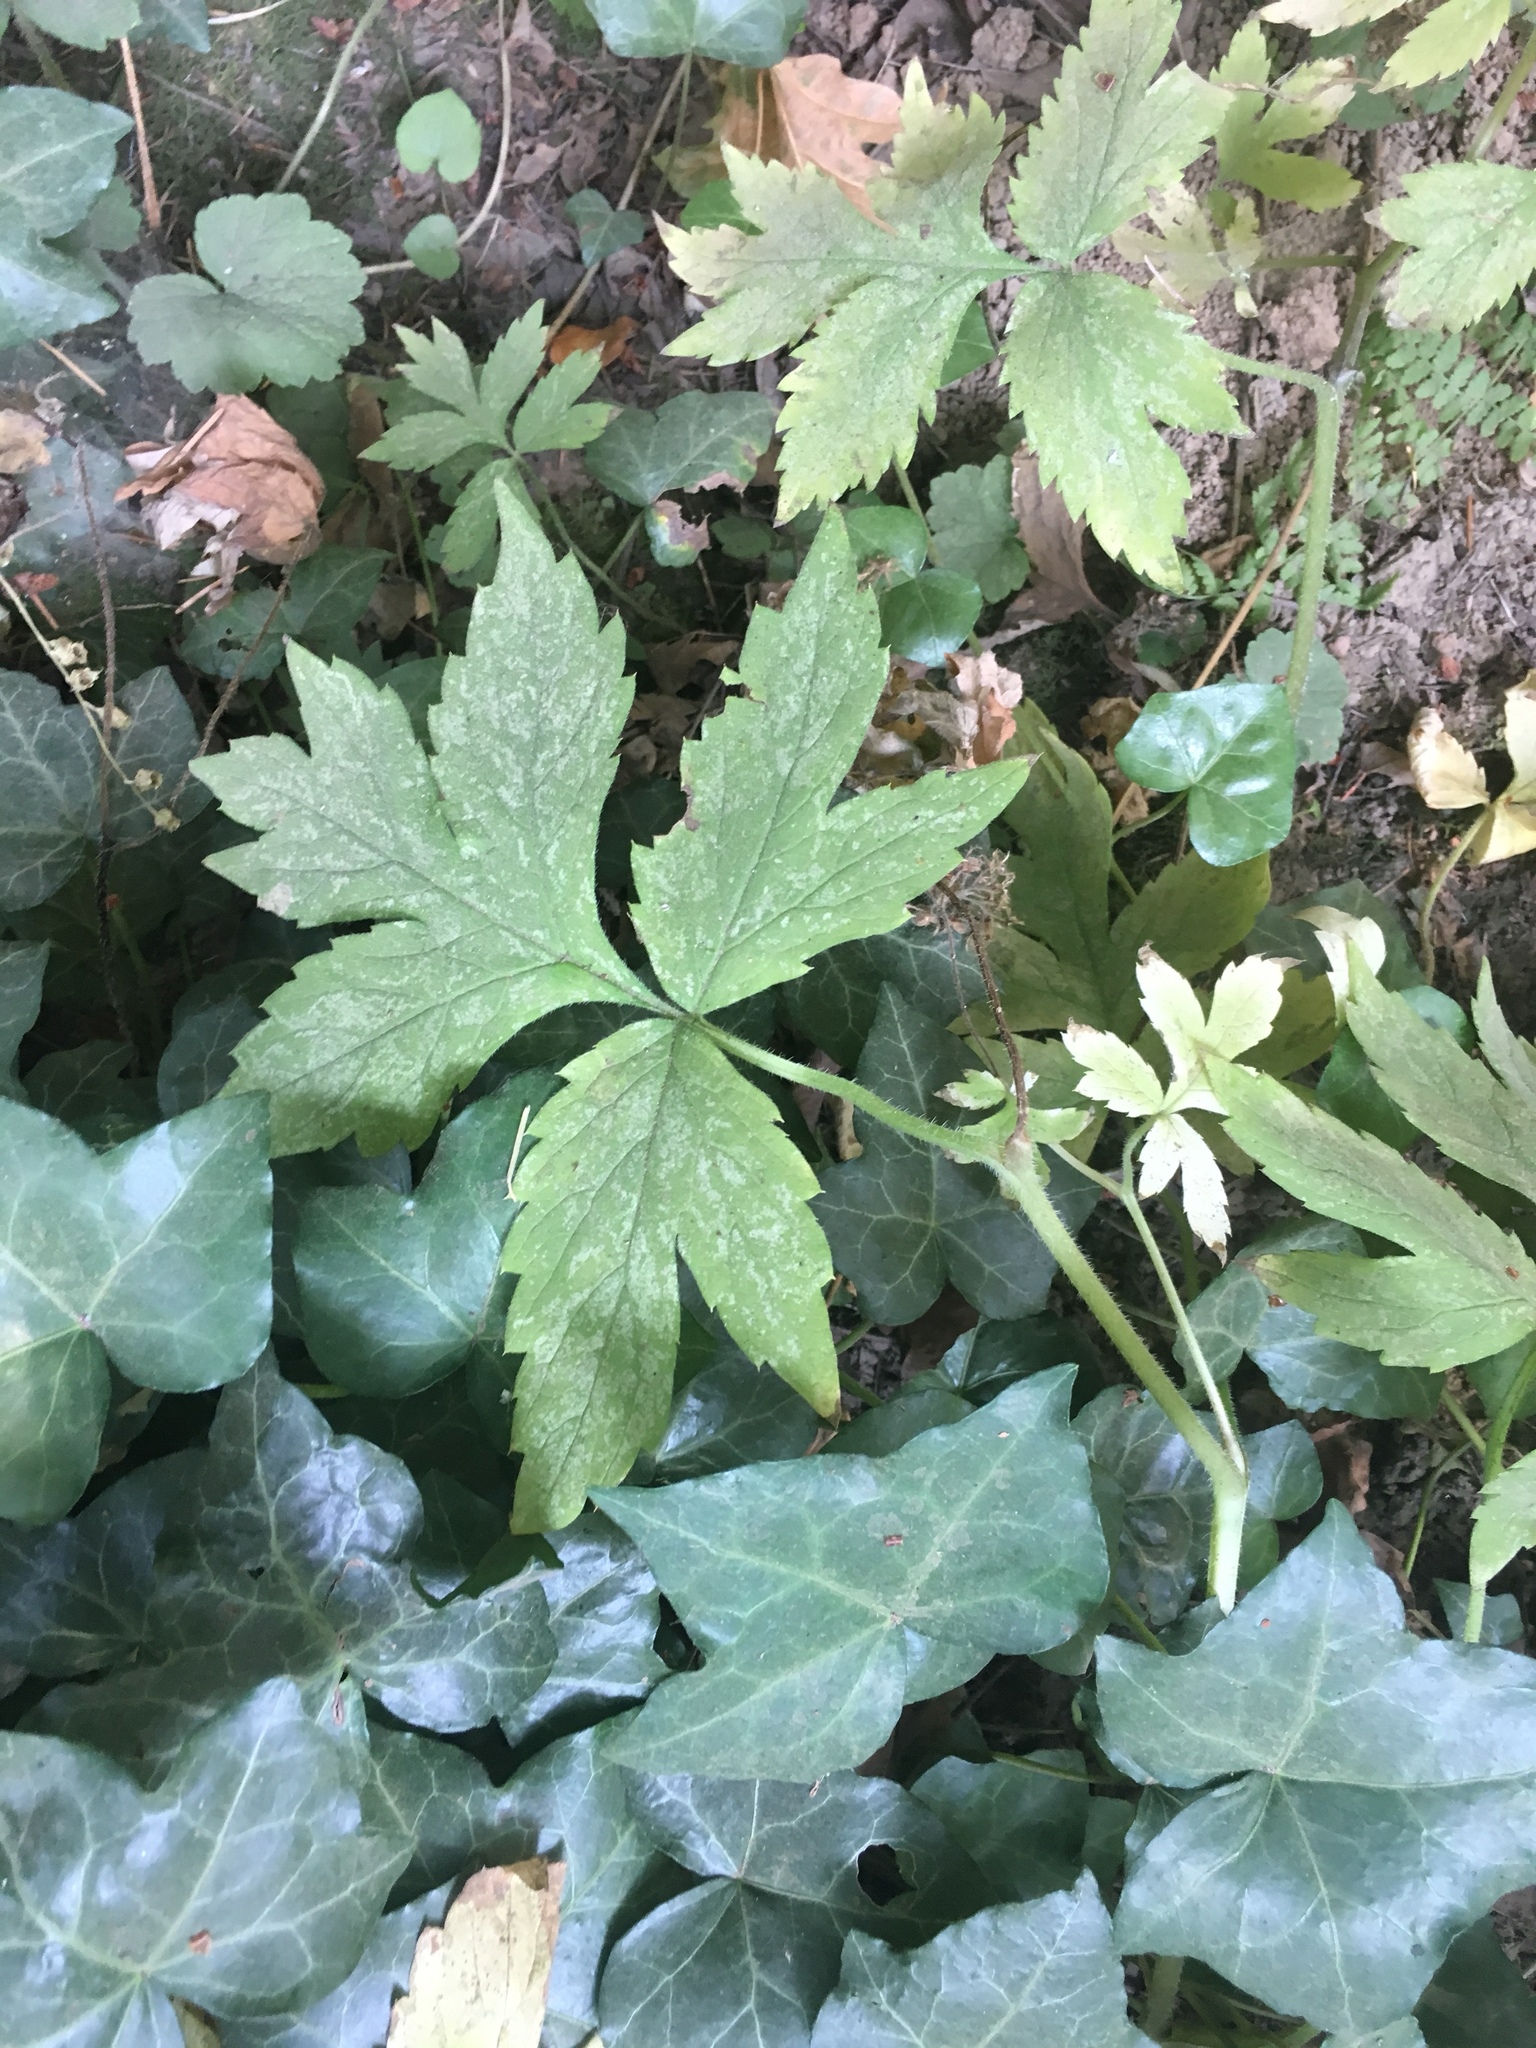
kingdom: Plantae
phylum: Tracheophyta
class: Magnoliopsida
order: Boraginales
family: Hydrophyllaceae
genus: Hydrophyllum
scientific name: Hydrophyllum tenuipes
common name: Pacific waterleaf
